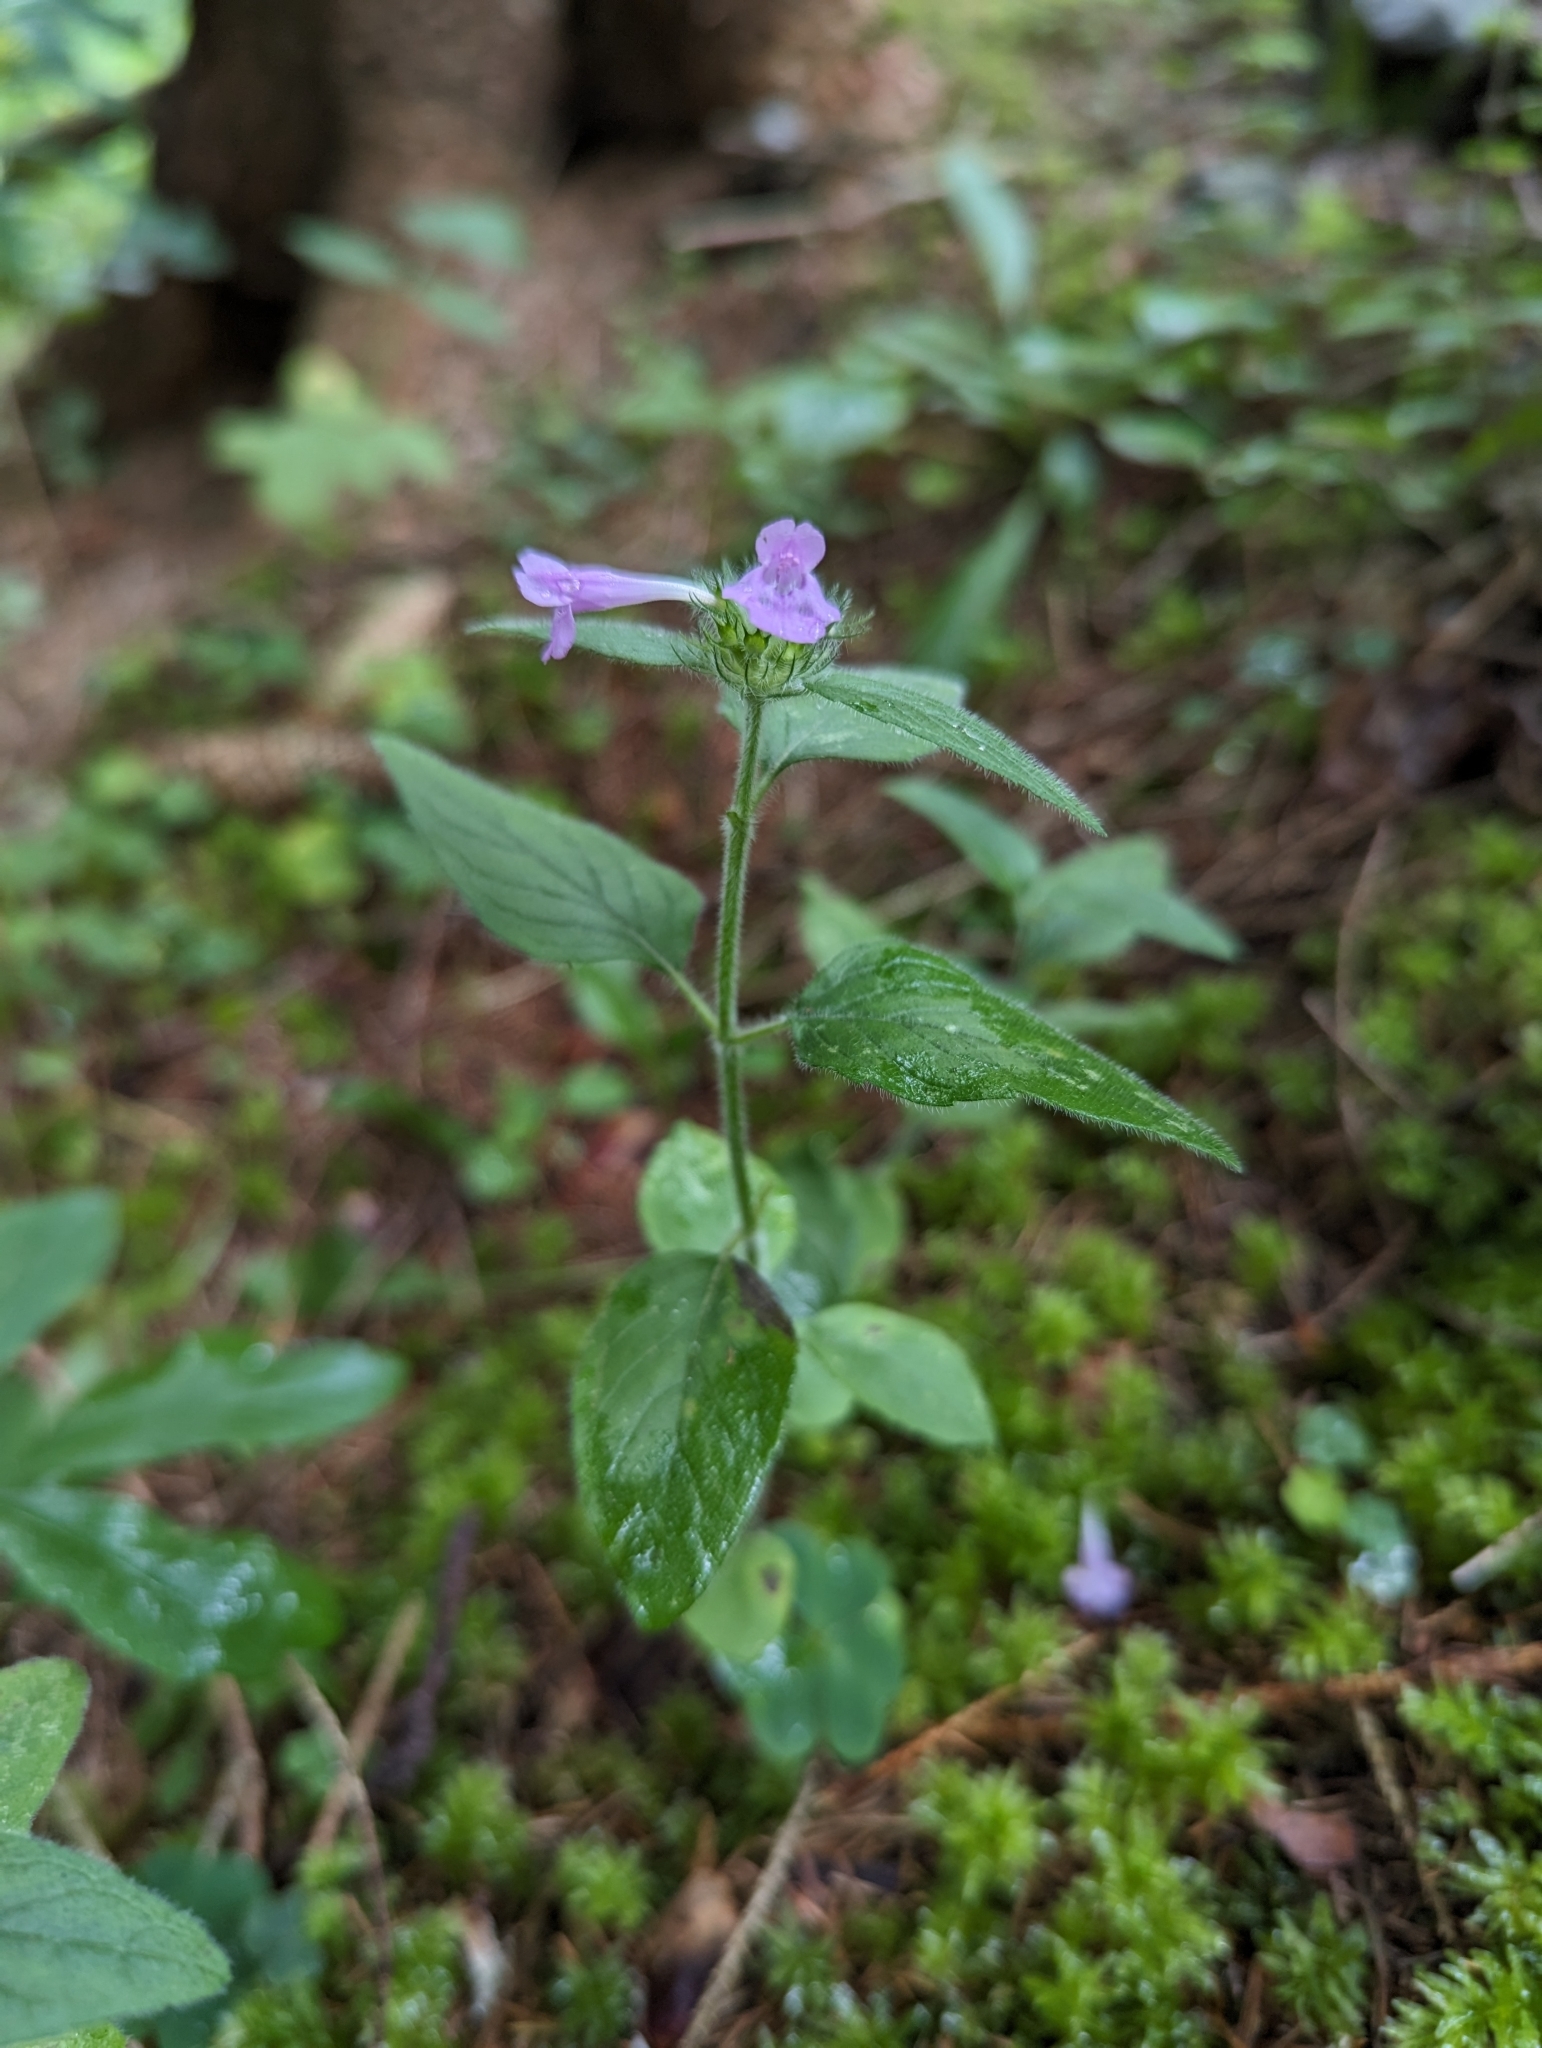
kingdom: Plantae
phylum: Tracheophyta
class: Magnoliopsida
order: Lamiales
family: Lamiaceae
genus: Clinopodium
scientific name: Clinopodium vulgare
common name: Wild basil
